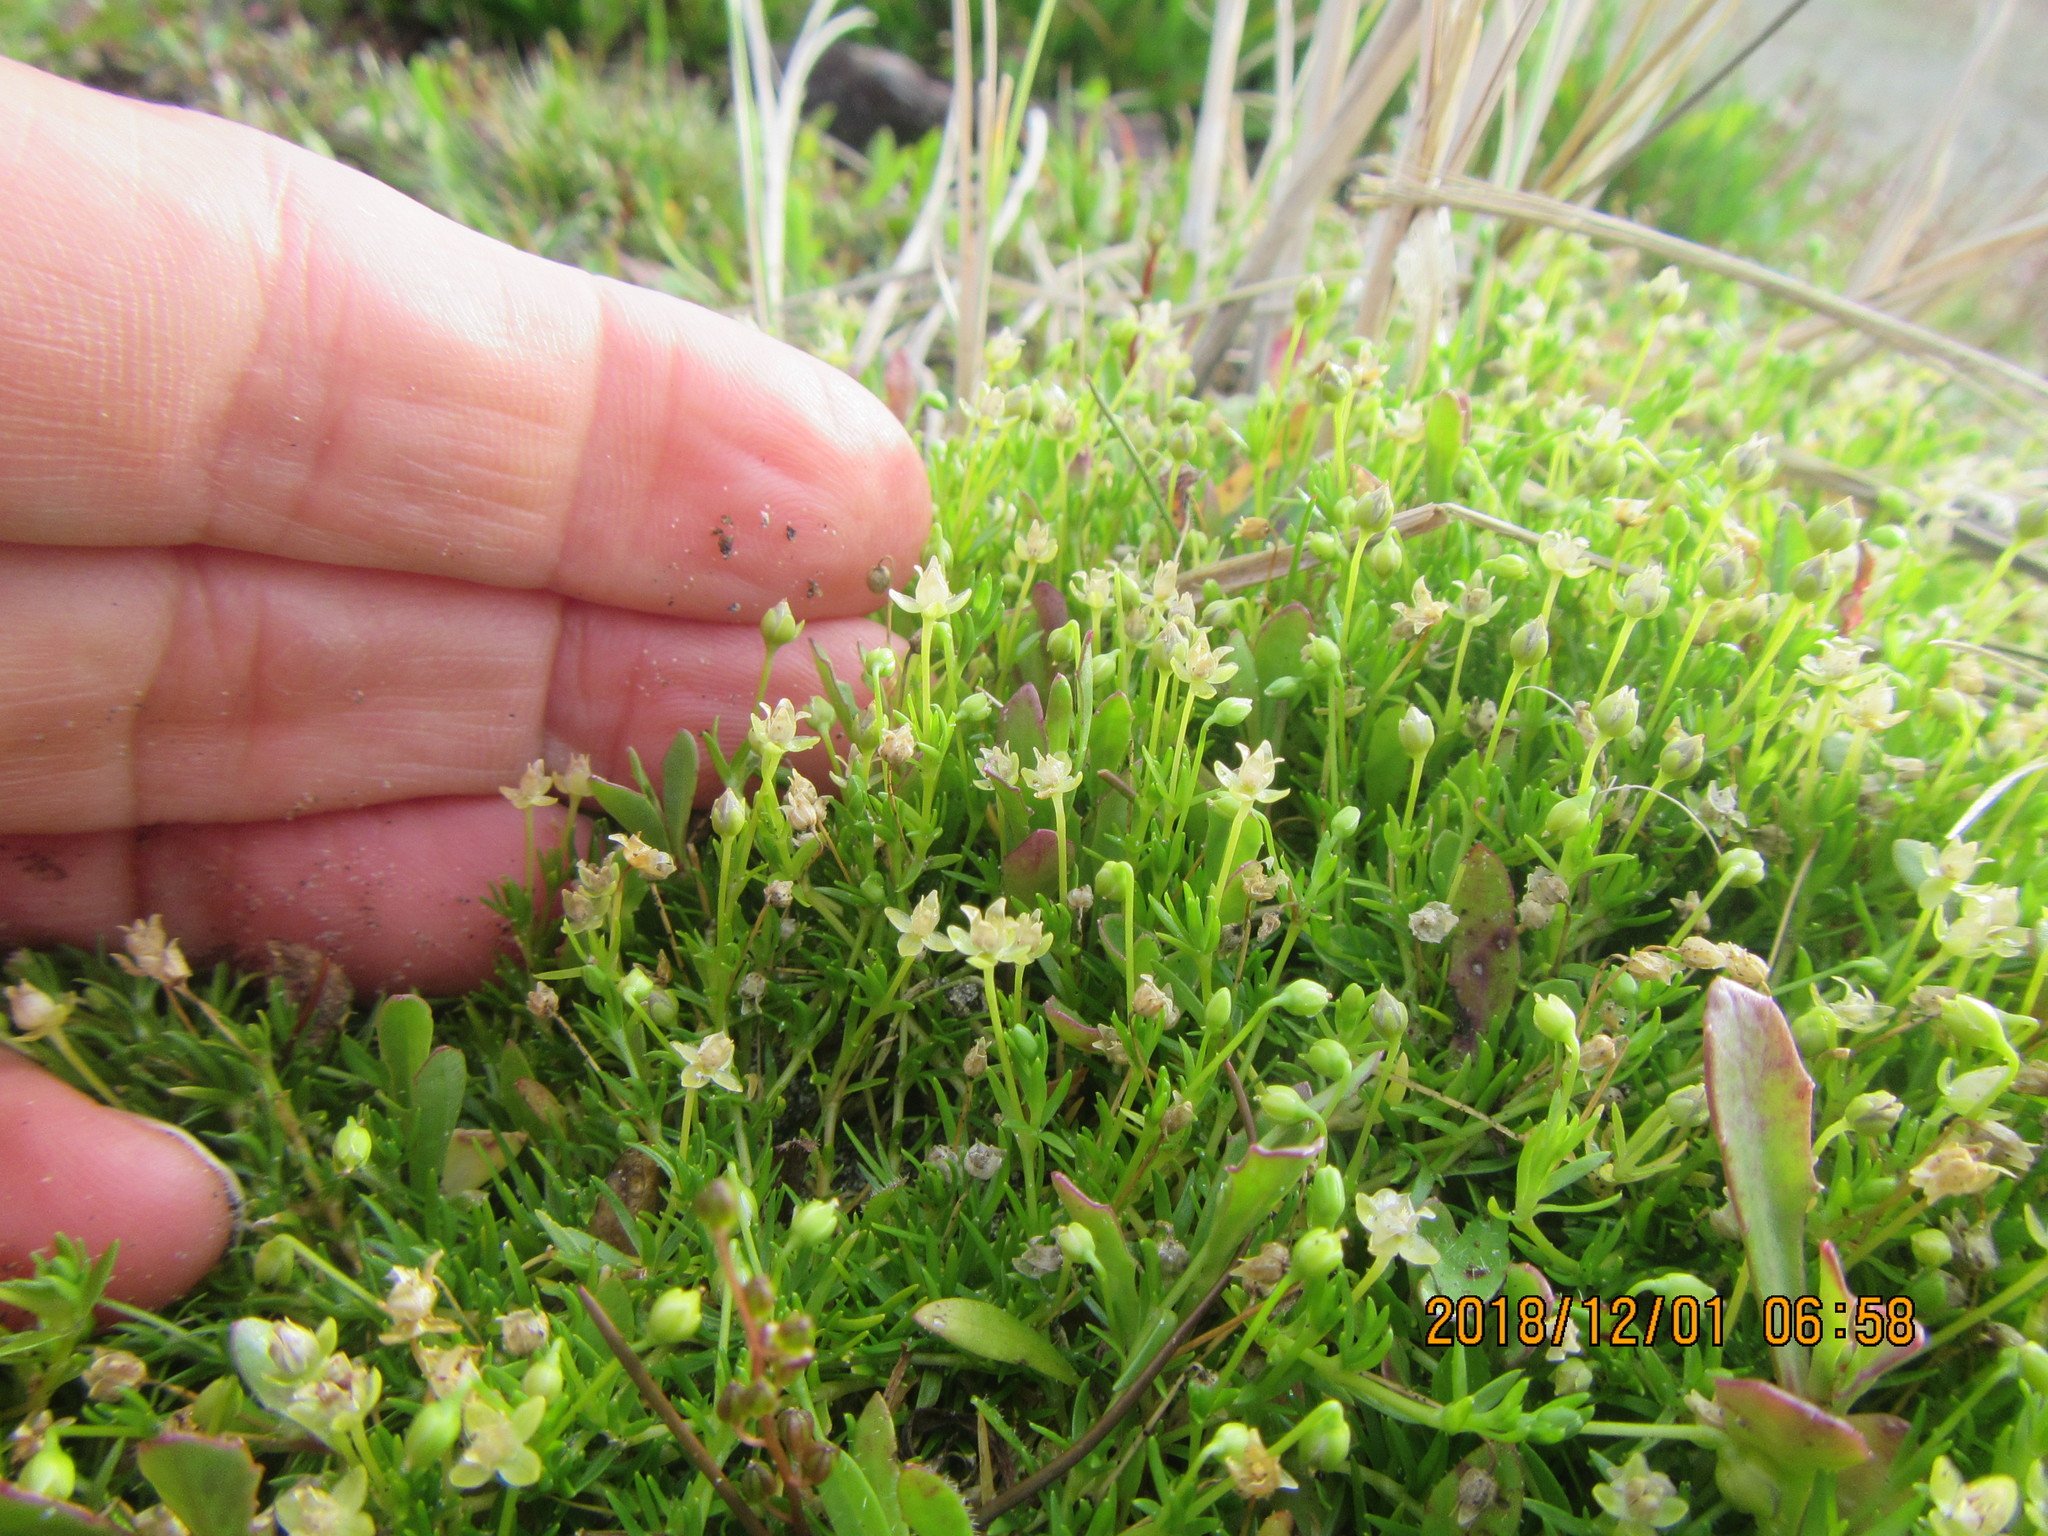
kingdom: Plantae
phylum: Tracheophyta
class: Magnoliopsida
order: Caryophyllales
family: Caryophyllaceae
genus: Sagina
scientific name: Sagina procumbens
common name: Procumbent pearlwort
